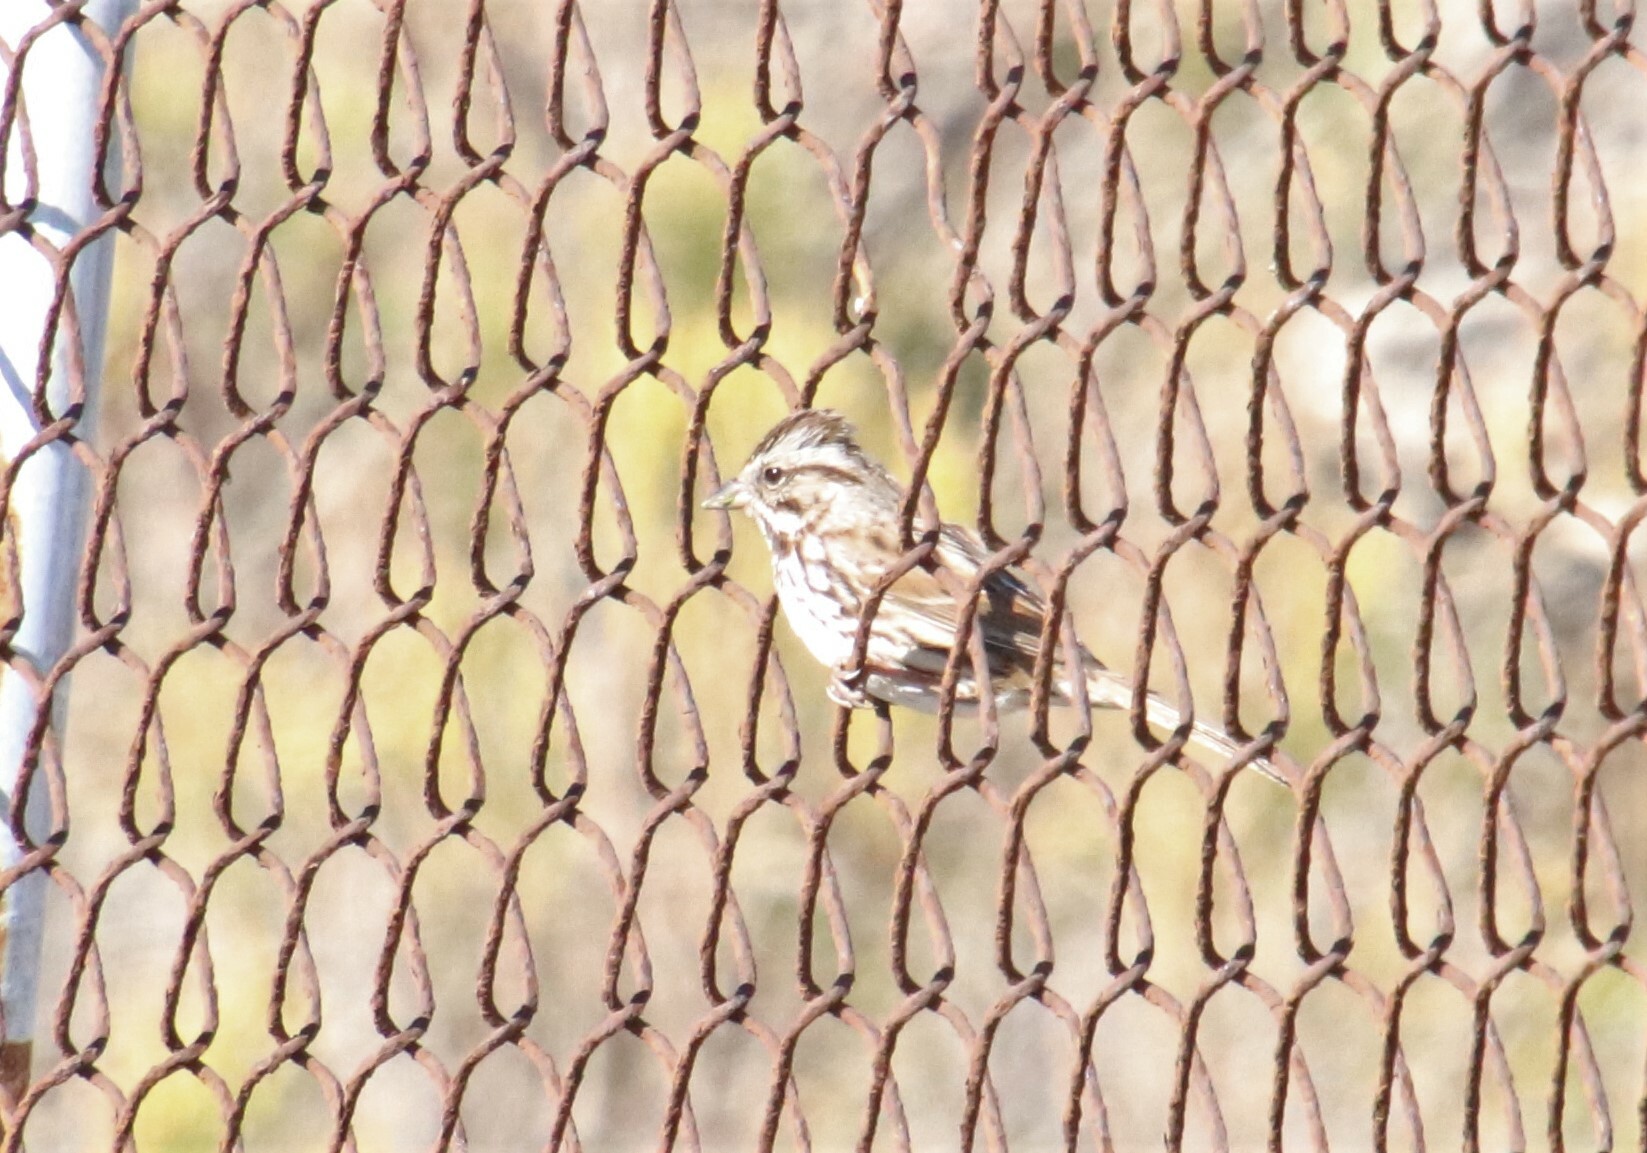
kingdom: Animalia
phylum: Chordata
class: Aves
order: Passeriformes
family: Passerellidae
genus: Melospiza
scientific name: Melospiza melodia
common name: Song sparrow
